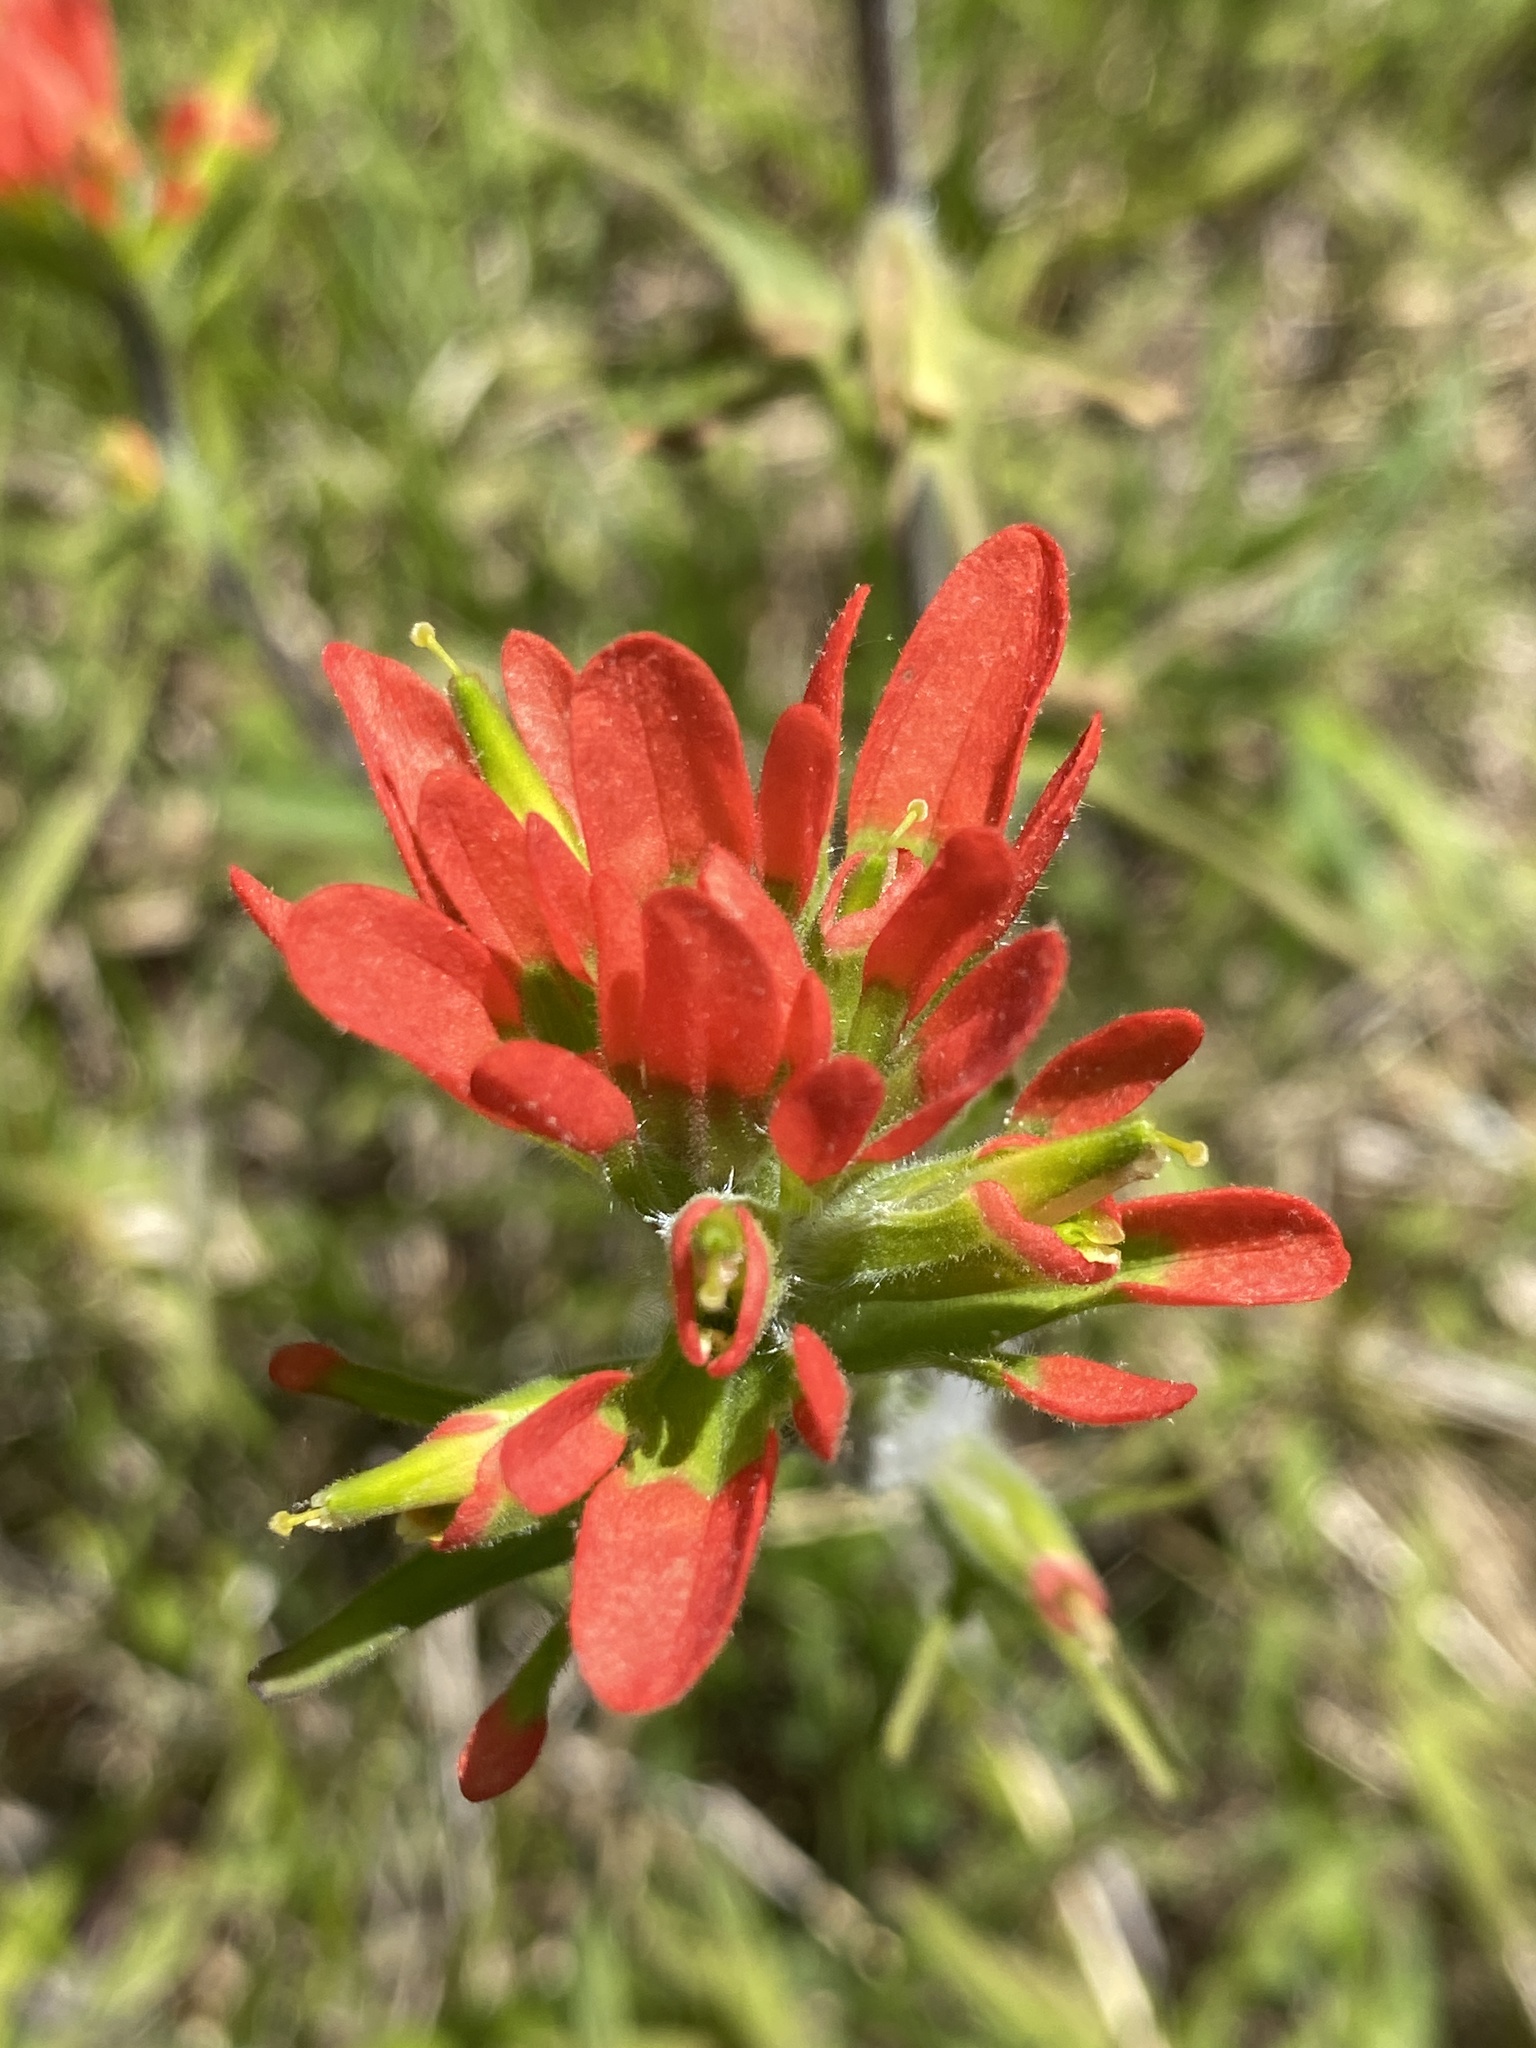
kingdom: Plantae
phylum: Tracheophyta
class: Magnoliopsida
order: Lamiales
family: Orobanchaceae
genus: Castilleja
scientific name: Castilleja coccinea
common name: Scarlet paintbrush
